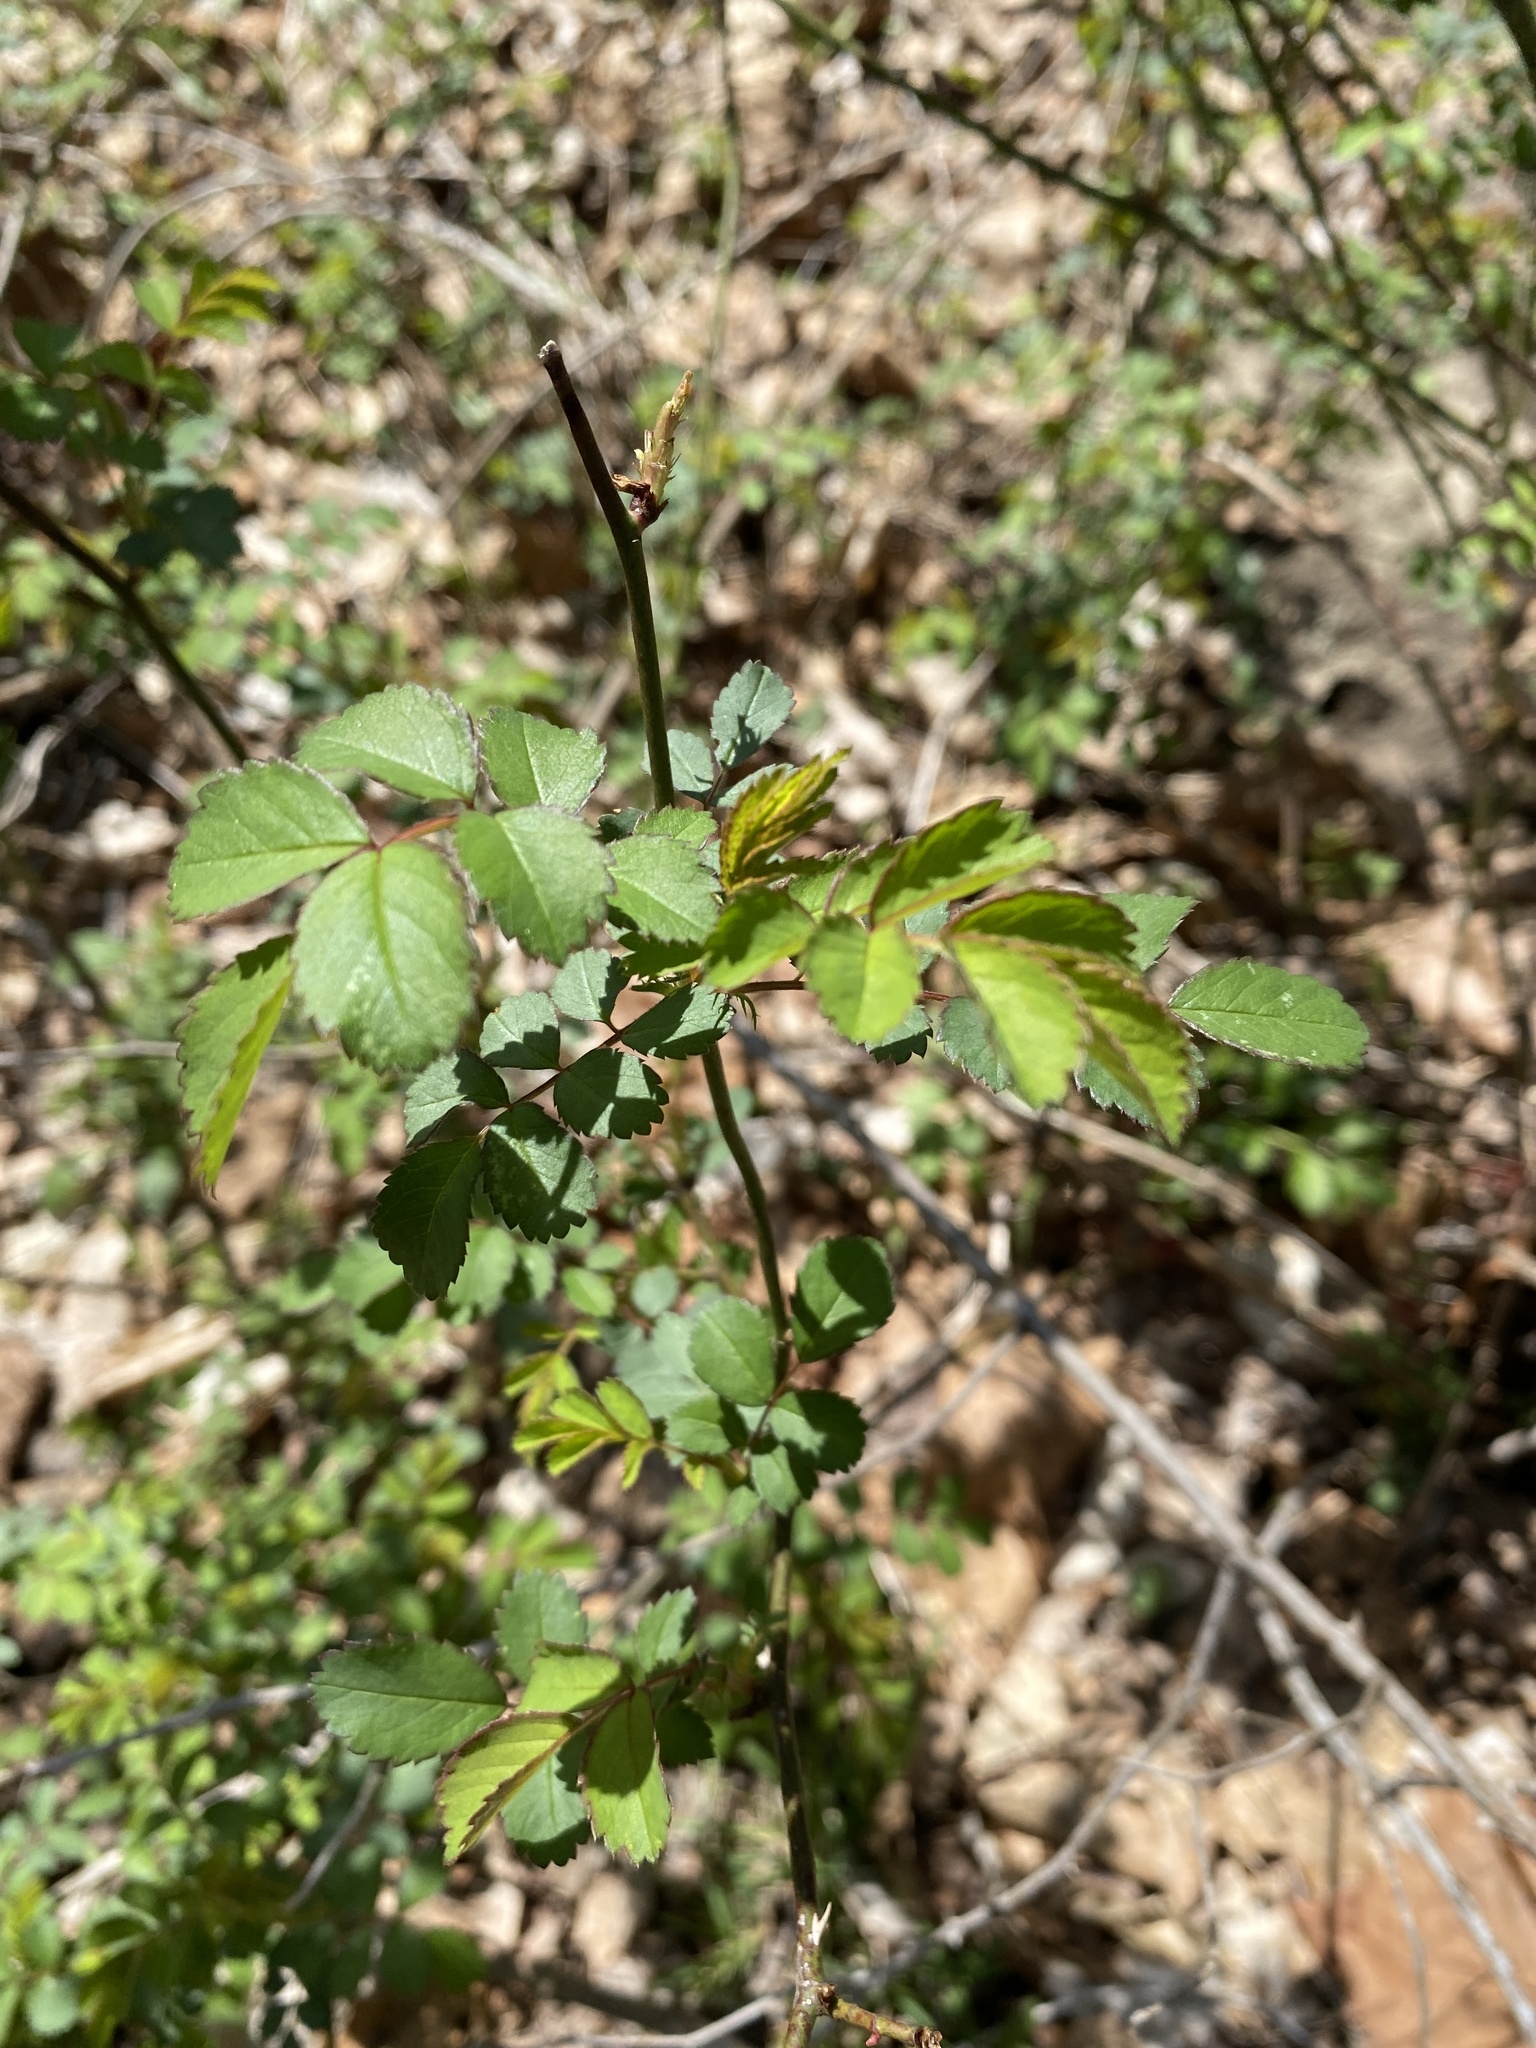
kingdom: Plantae
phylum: Tracheophyta
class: Magnoliopsida
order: Rosales
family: Rosaceae
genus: Rosa
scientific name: Rosa multiflora
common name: Multiflora rose
